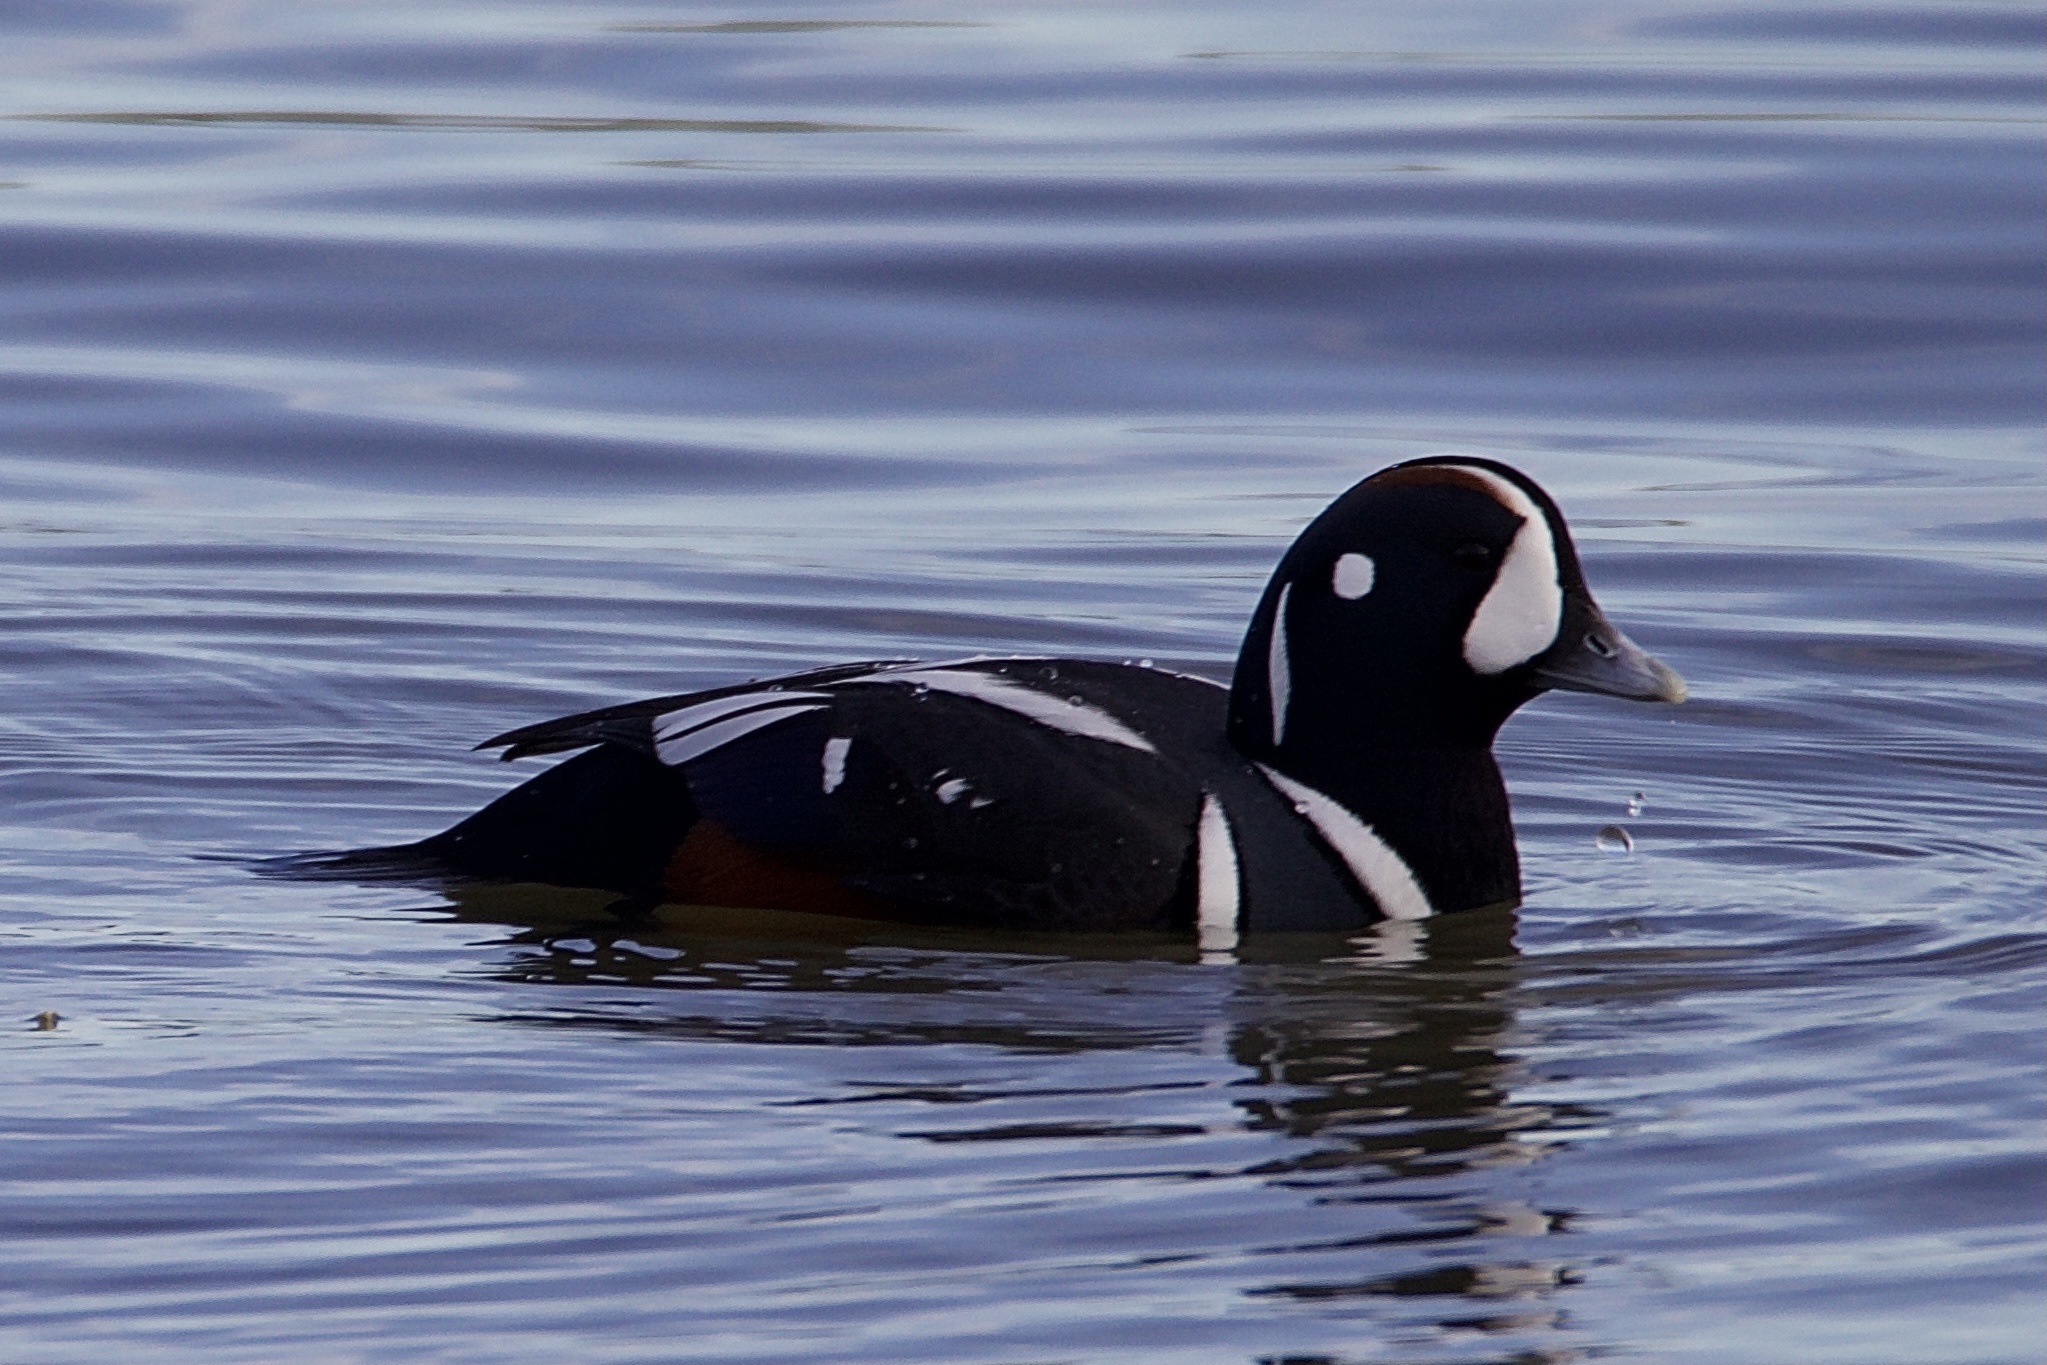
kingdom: Animalia
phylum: Chordata
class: Aves
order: Anseriformes
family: Anatidae
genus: Histrionicus
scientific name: Histrionicus histrionicus
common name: Harlequin duck
